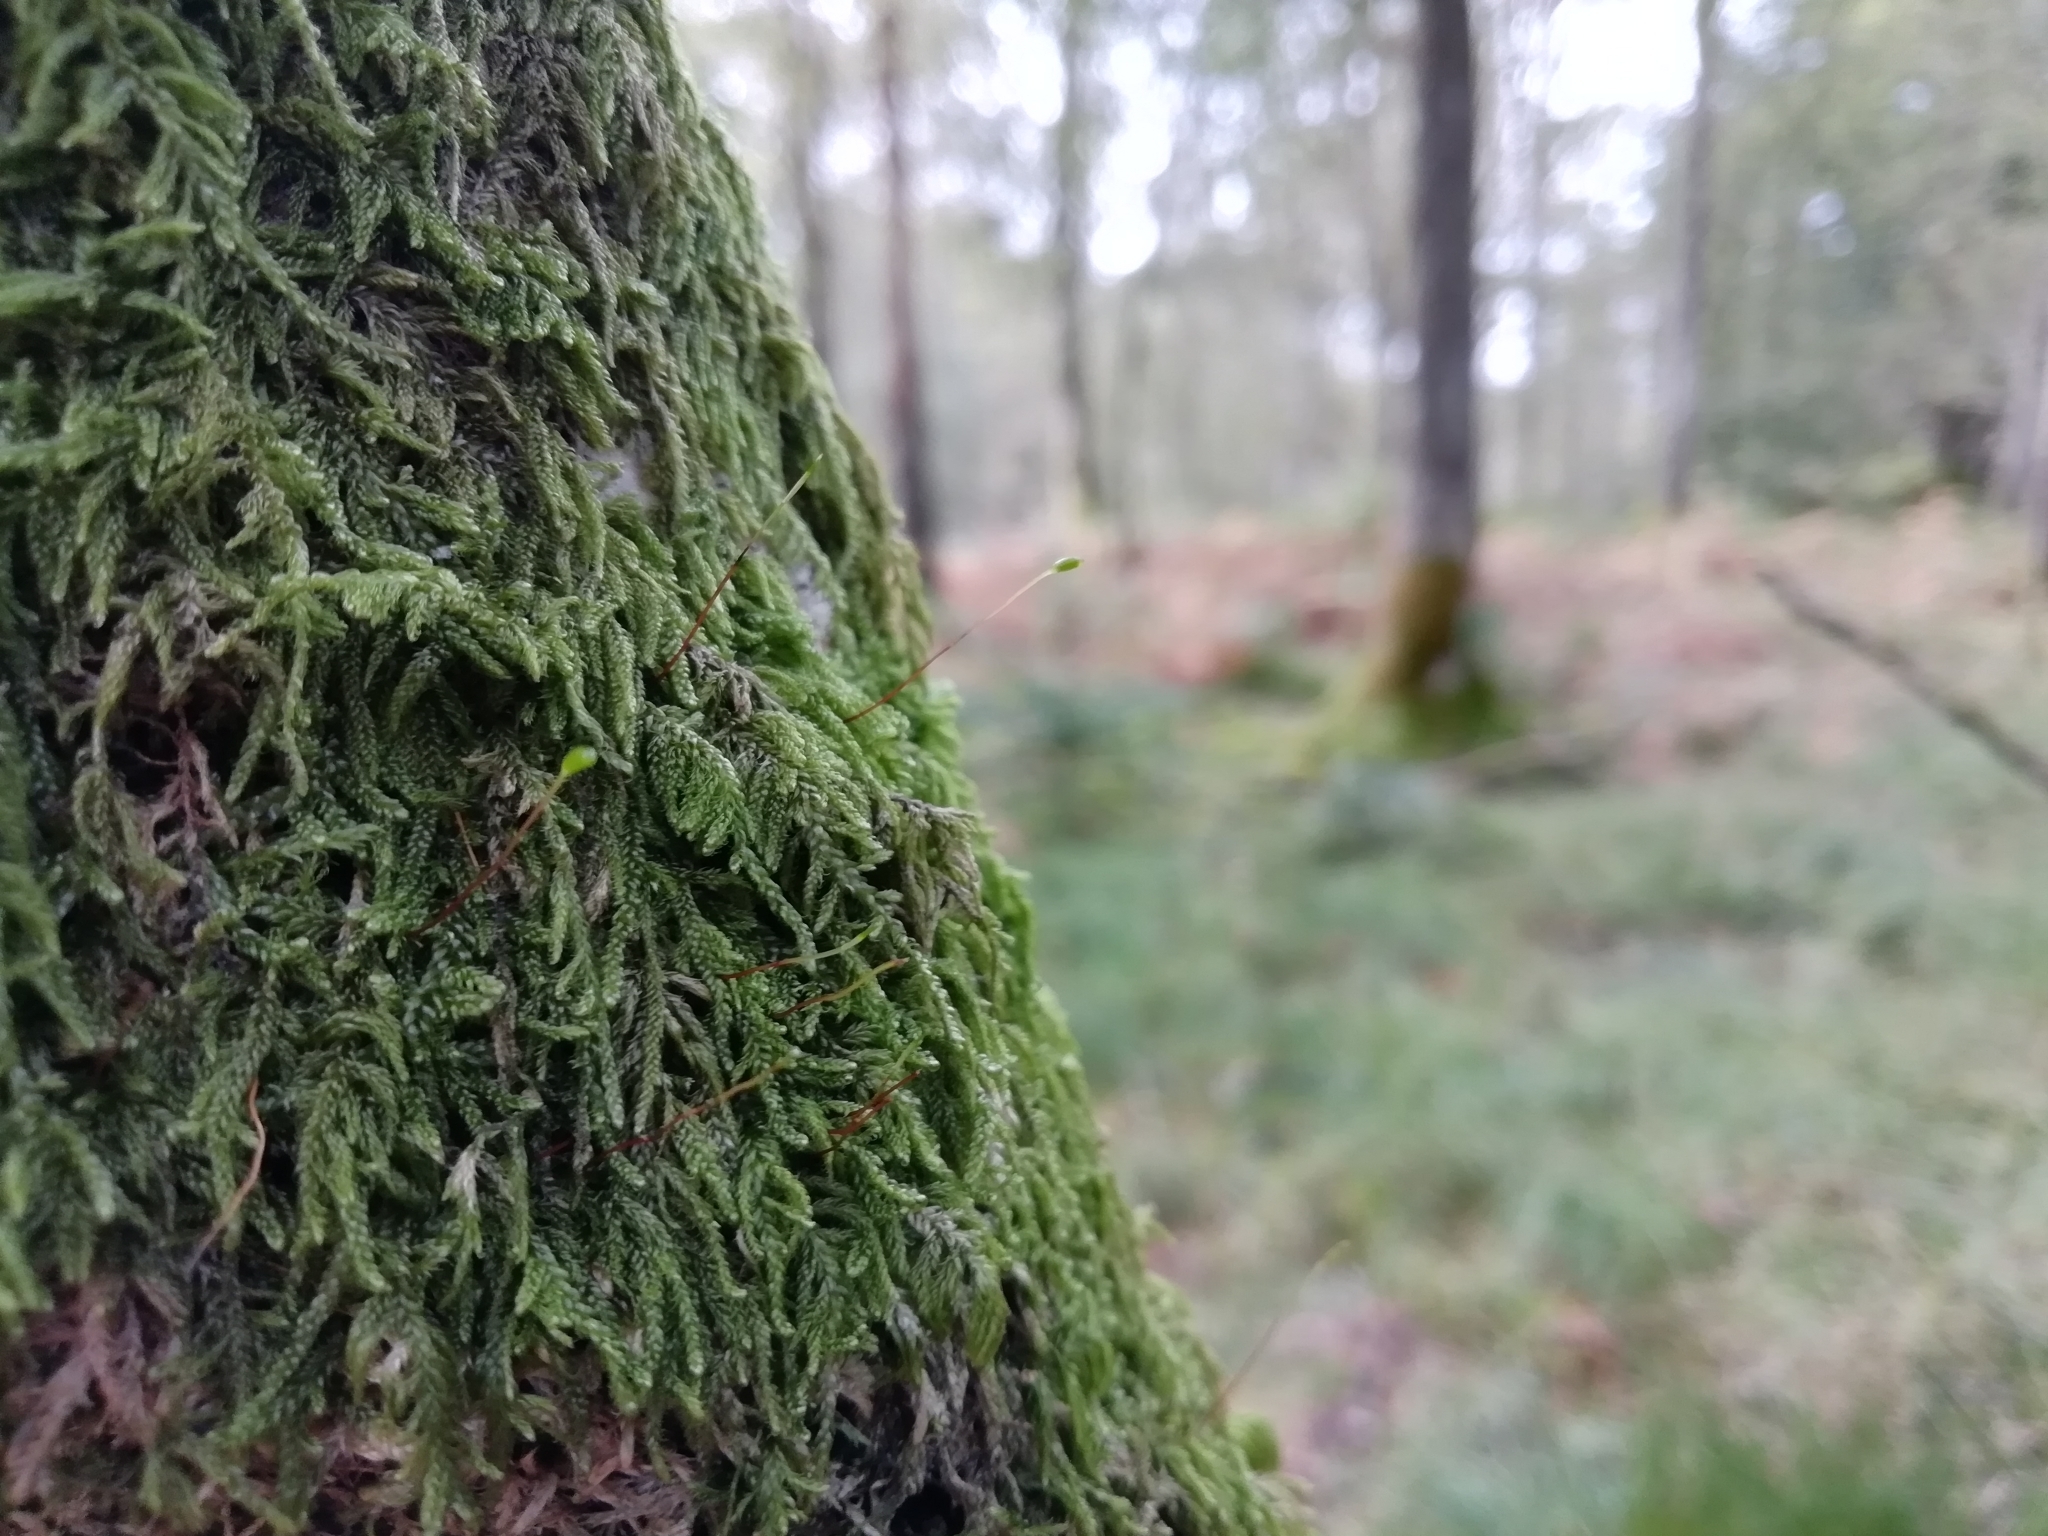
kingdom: Plantae
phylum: Bryophyta
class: Bryopsida
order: Hypnales
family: Hypnaceae
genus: Hypnum
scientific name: Hypnum cupressiforme
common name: Cypress-leaved plait-moss
